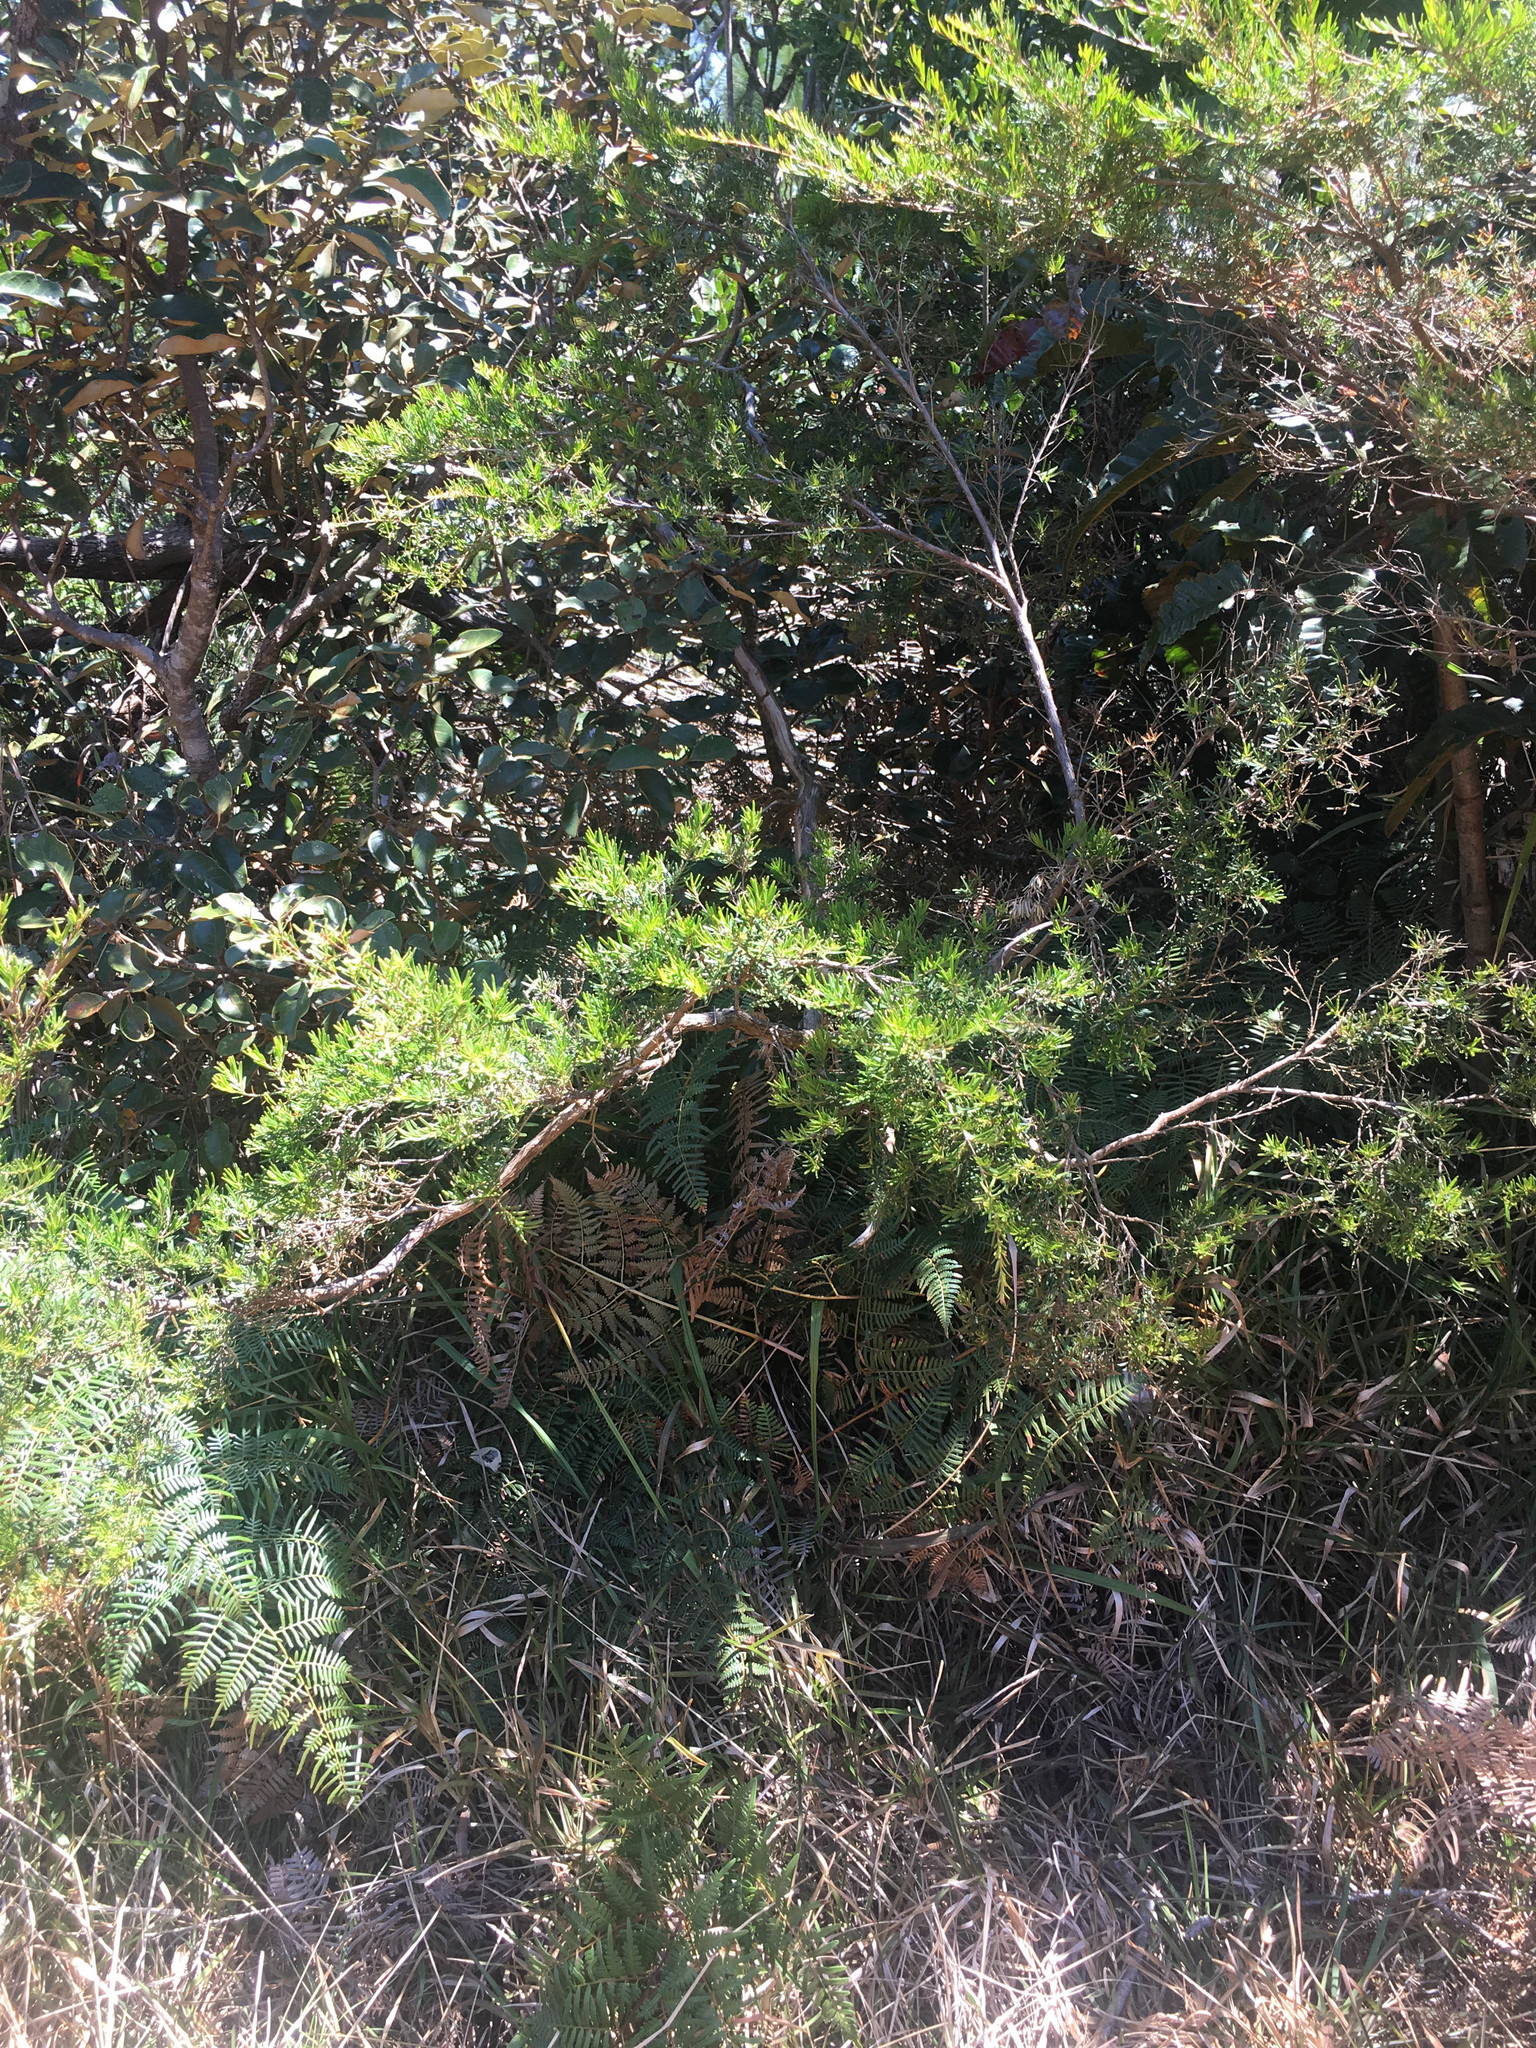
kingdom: Plantae
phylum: Tracheophyta
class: Magnoliopsida
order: Myrtales
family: Myrtaceae
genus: Sannantha
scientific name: Sannantha virgata
